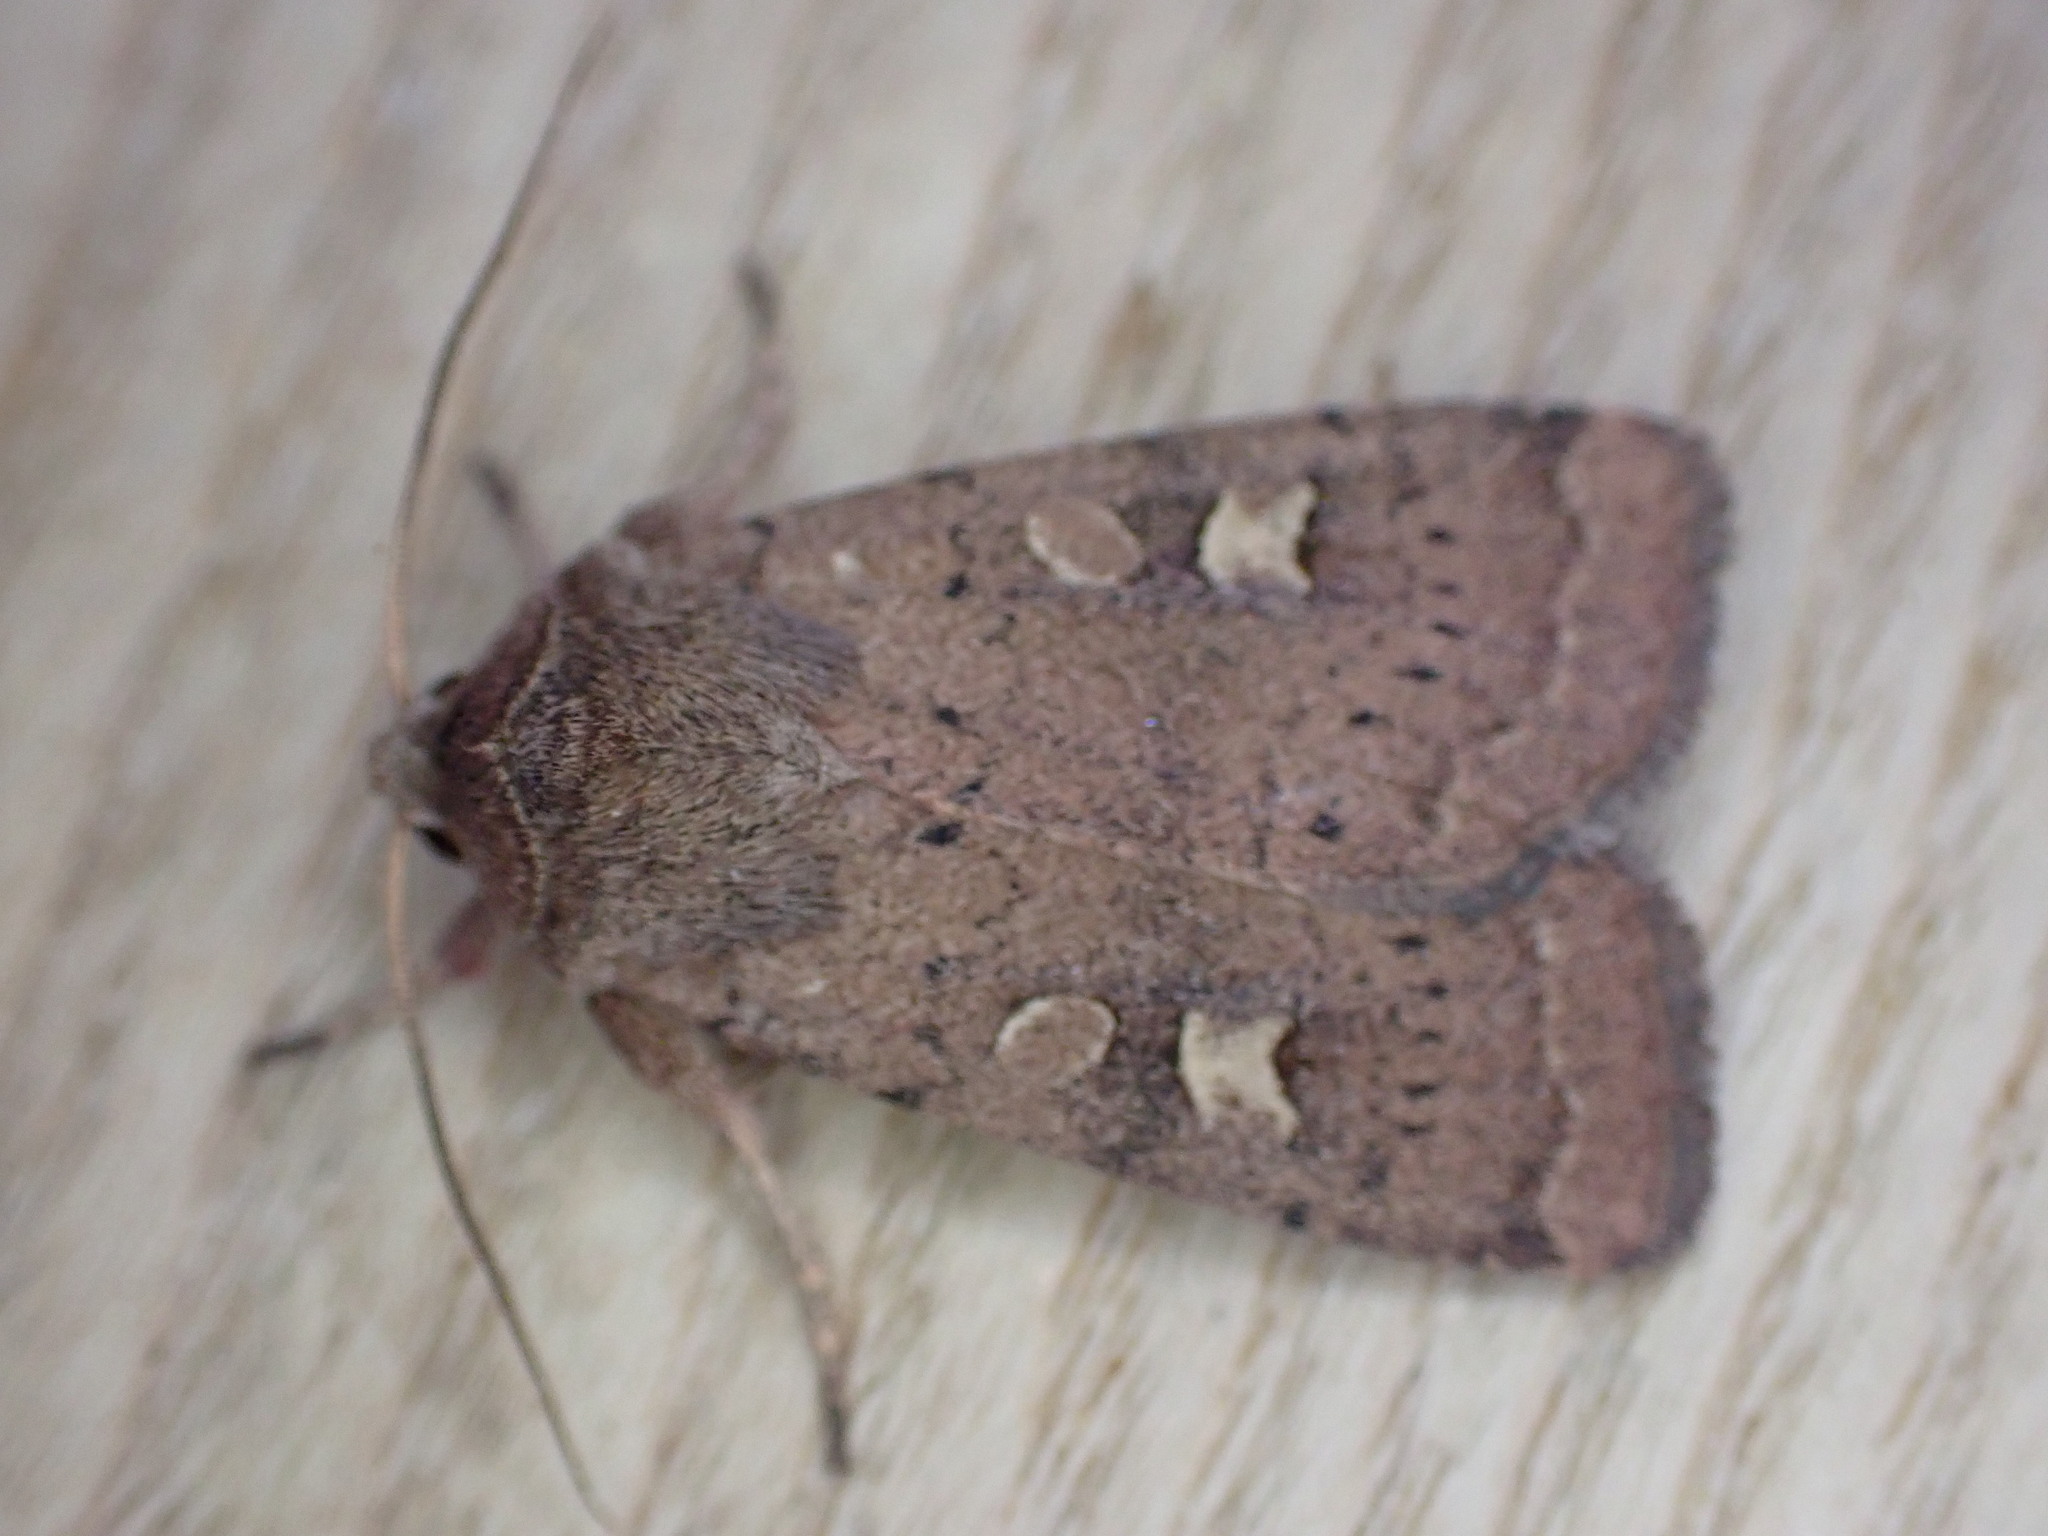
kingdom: Animalia
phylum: Arthropoda
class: Insecta
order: Lepidoptera
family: Noctuidae
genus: Xestia
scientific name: Xestia xanthographa
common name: Square-spot rustic
